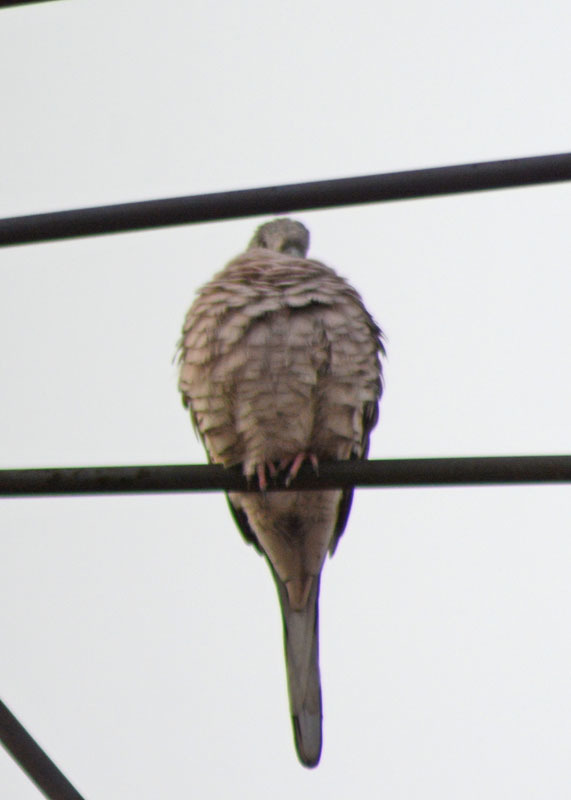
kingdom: Animalia
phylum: Chordata
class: Aves
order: Columbiformes
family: Columbidae
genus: Columbina
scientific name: Columbina inca
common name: Inca dove
